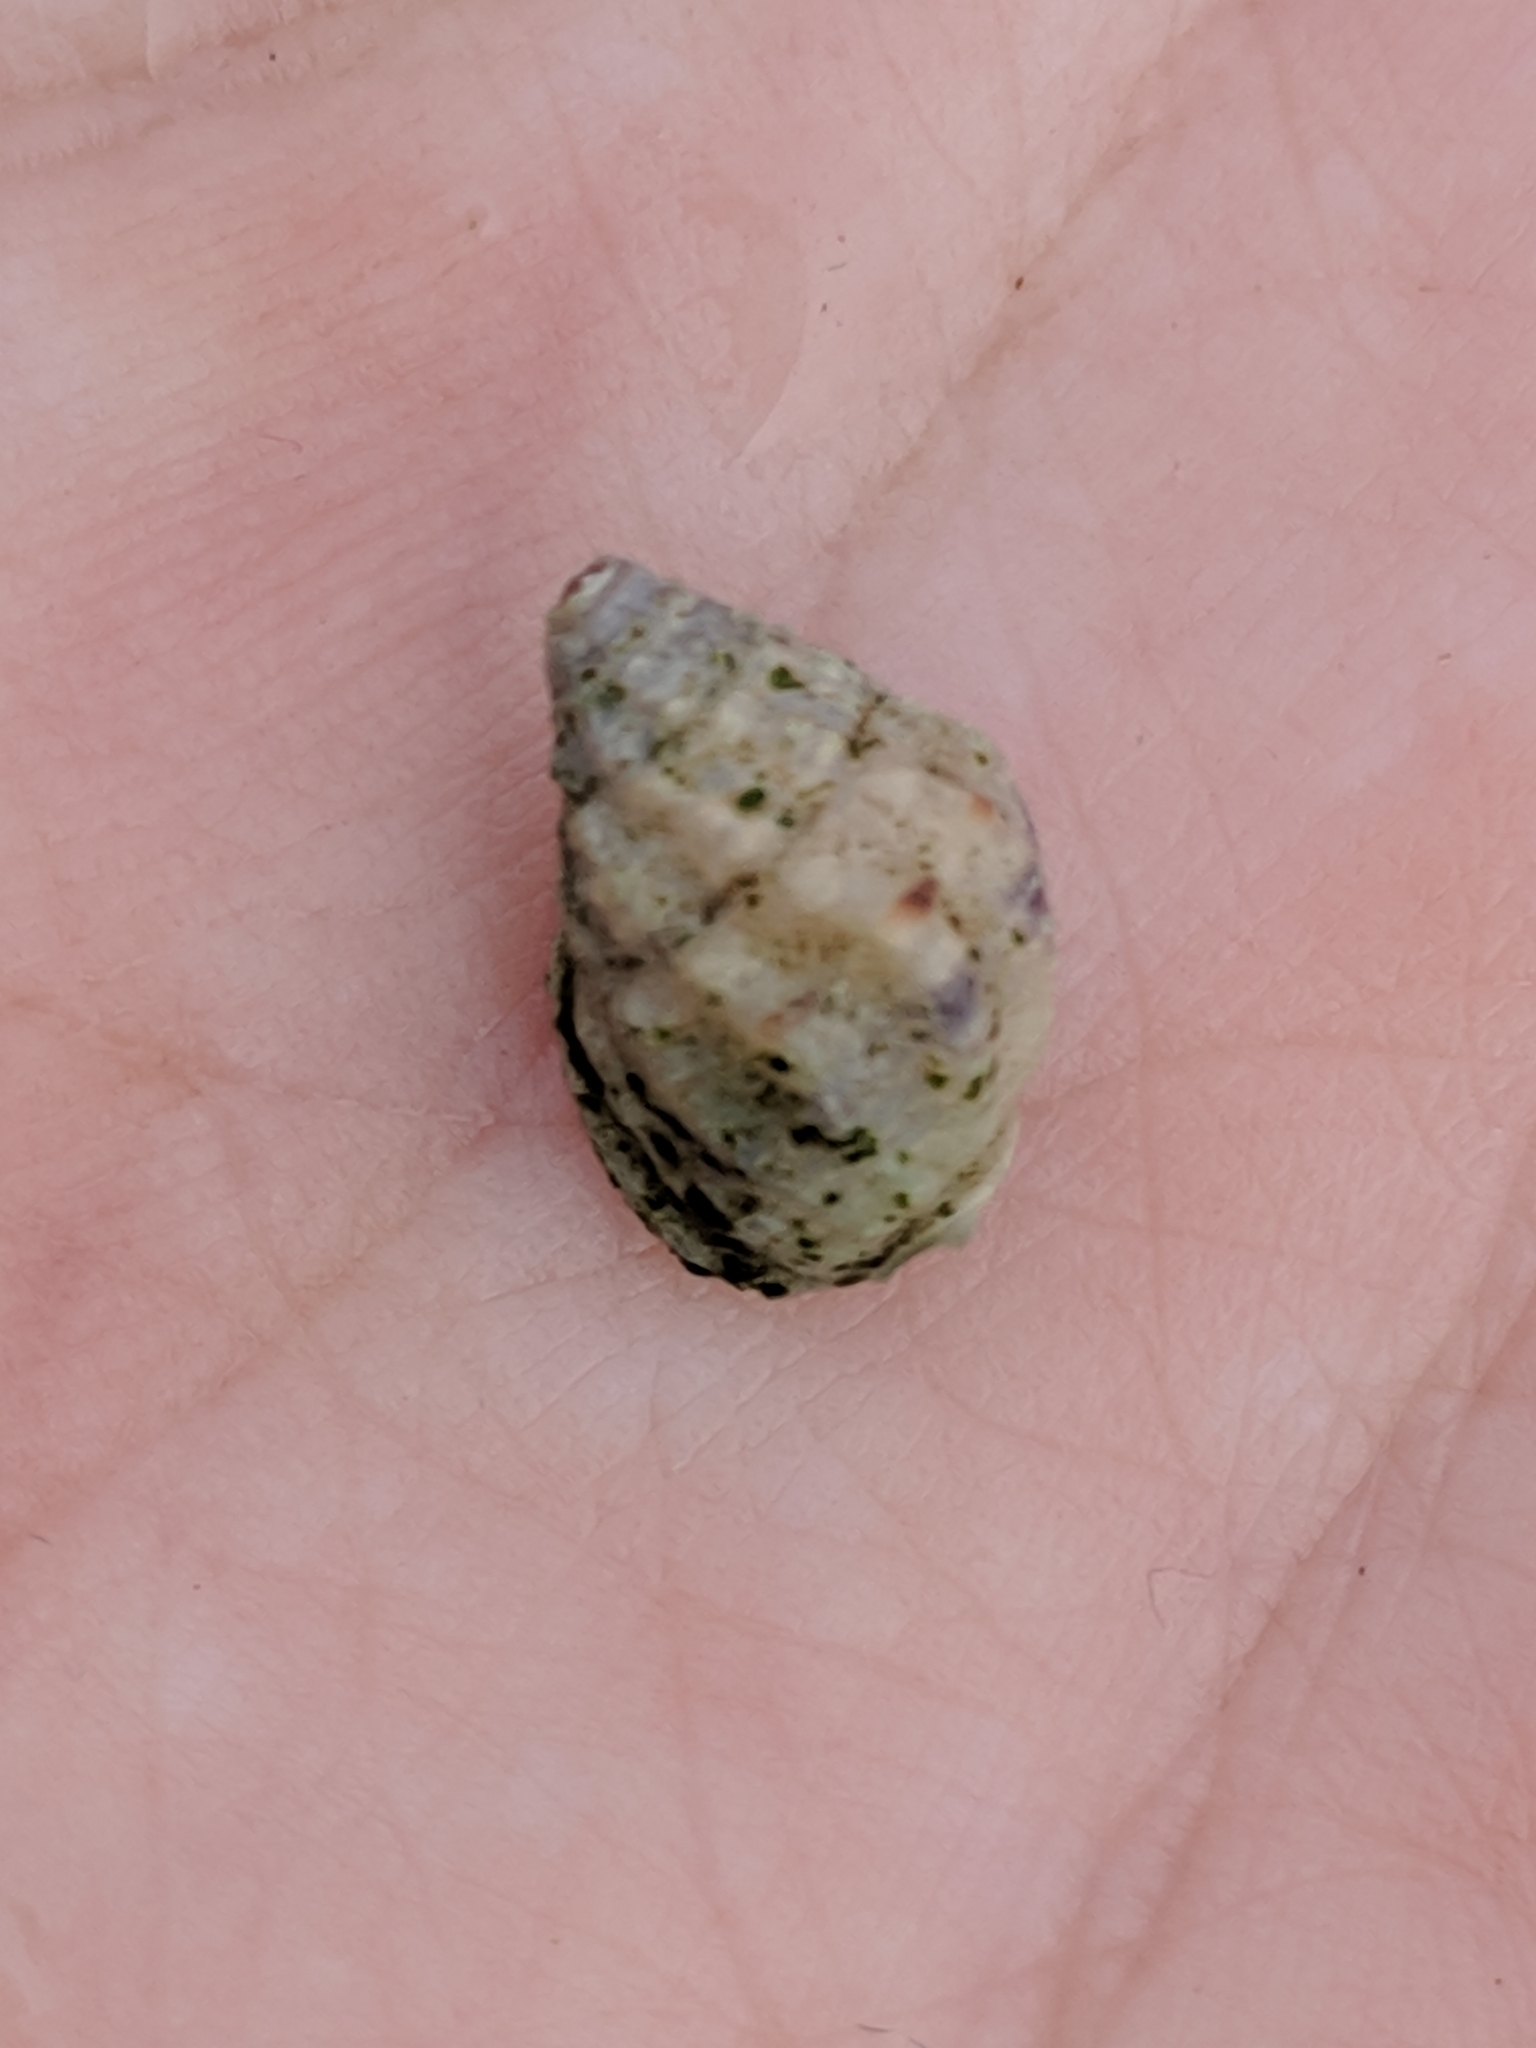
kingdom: Animalia
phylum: Mollusca
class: Gastropoda
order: Neogastropoda
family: Nassariidae
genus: Phrontis
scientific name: Phrontis vibex
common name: Bruised nassa
